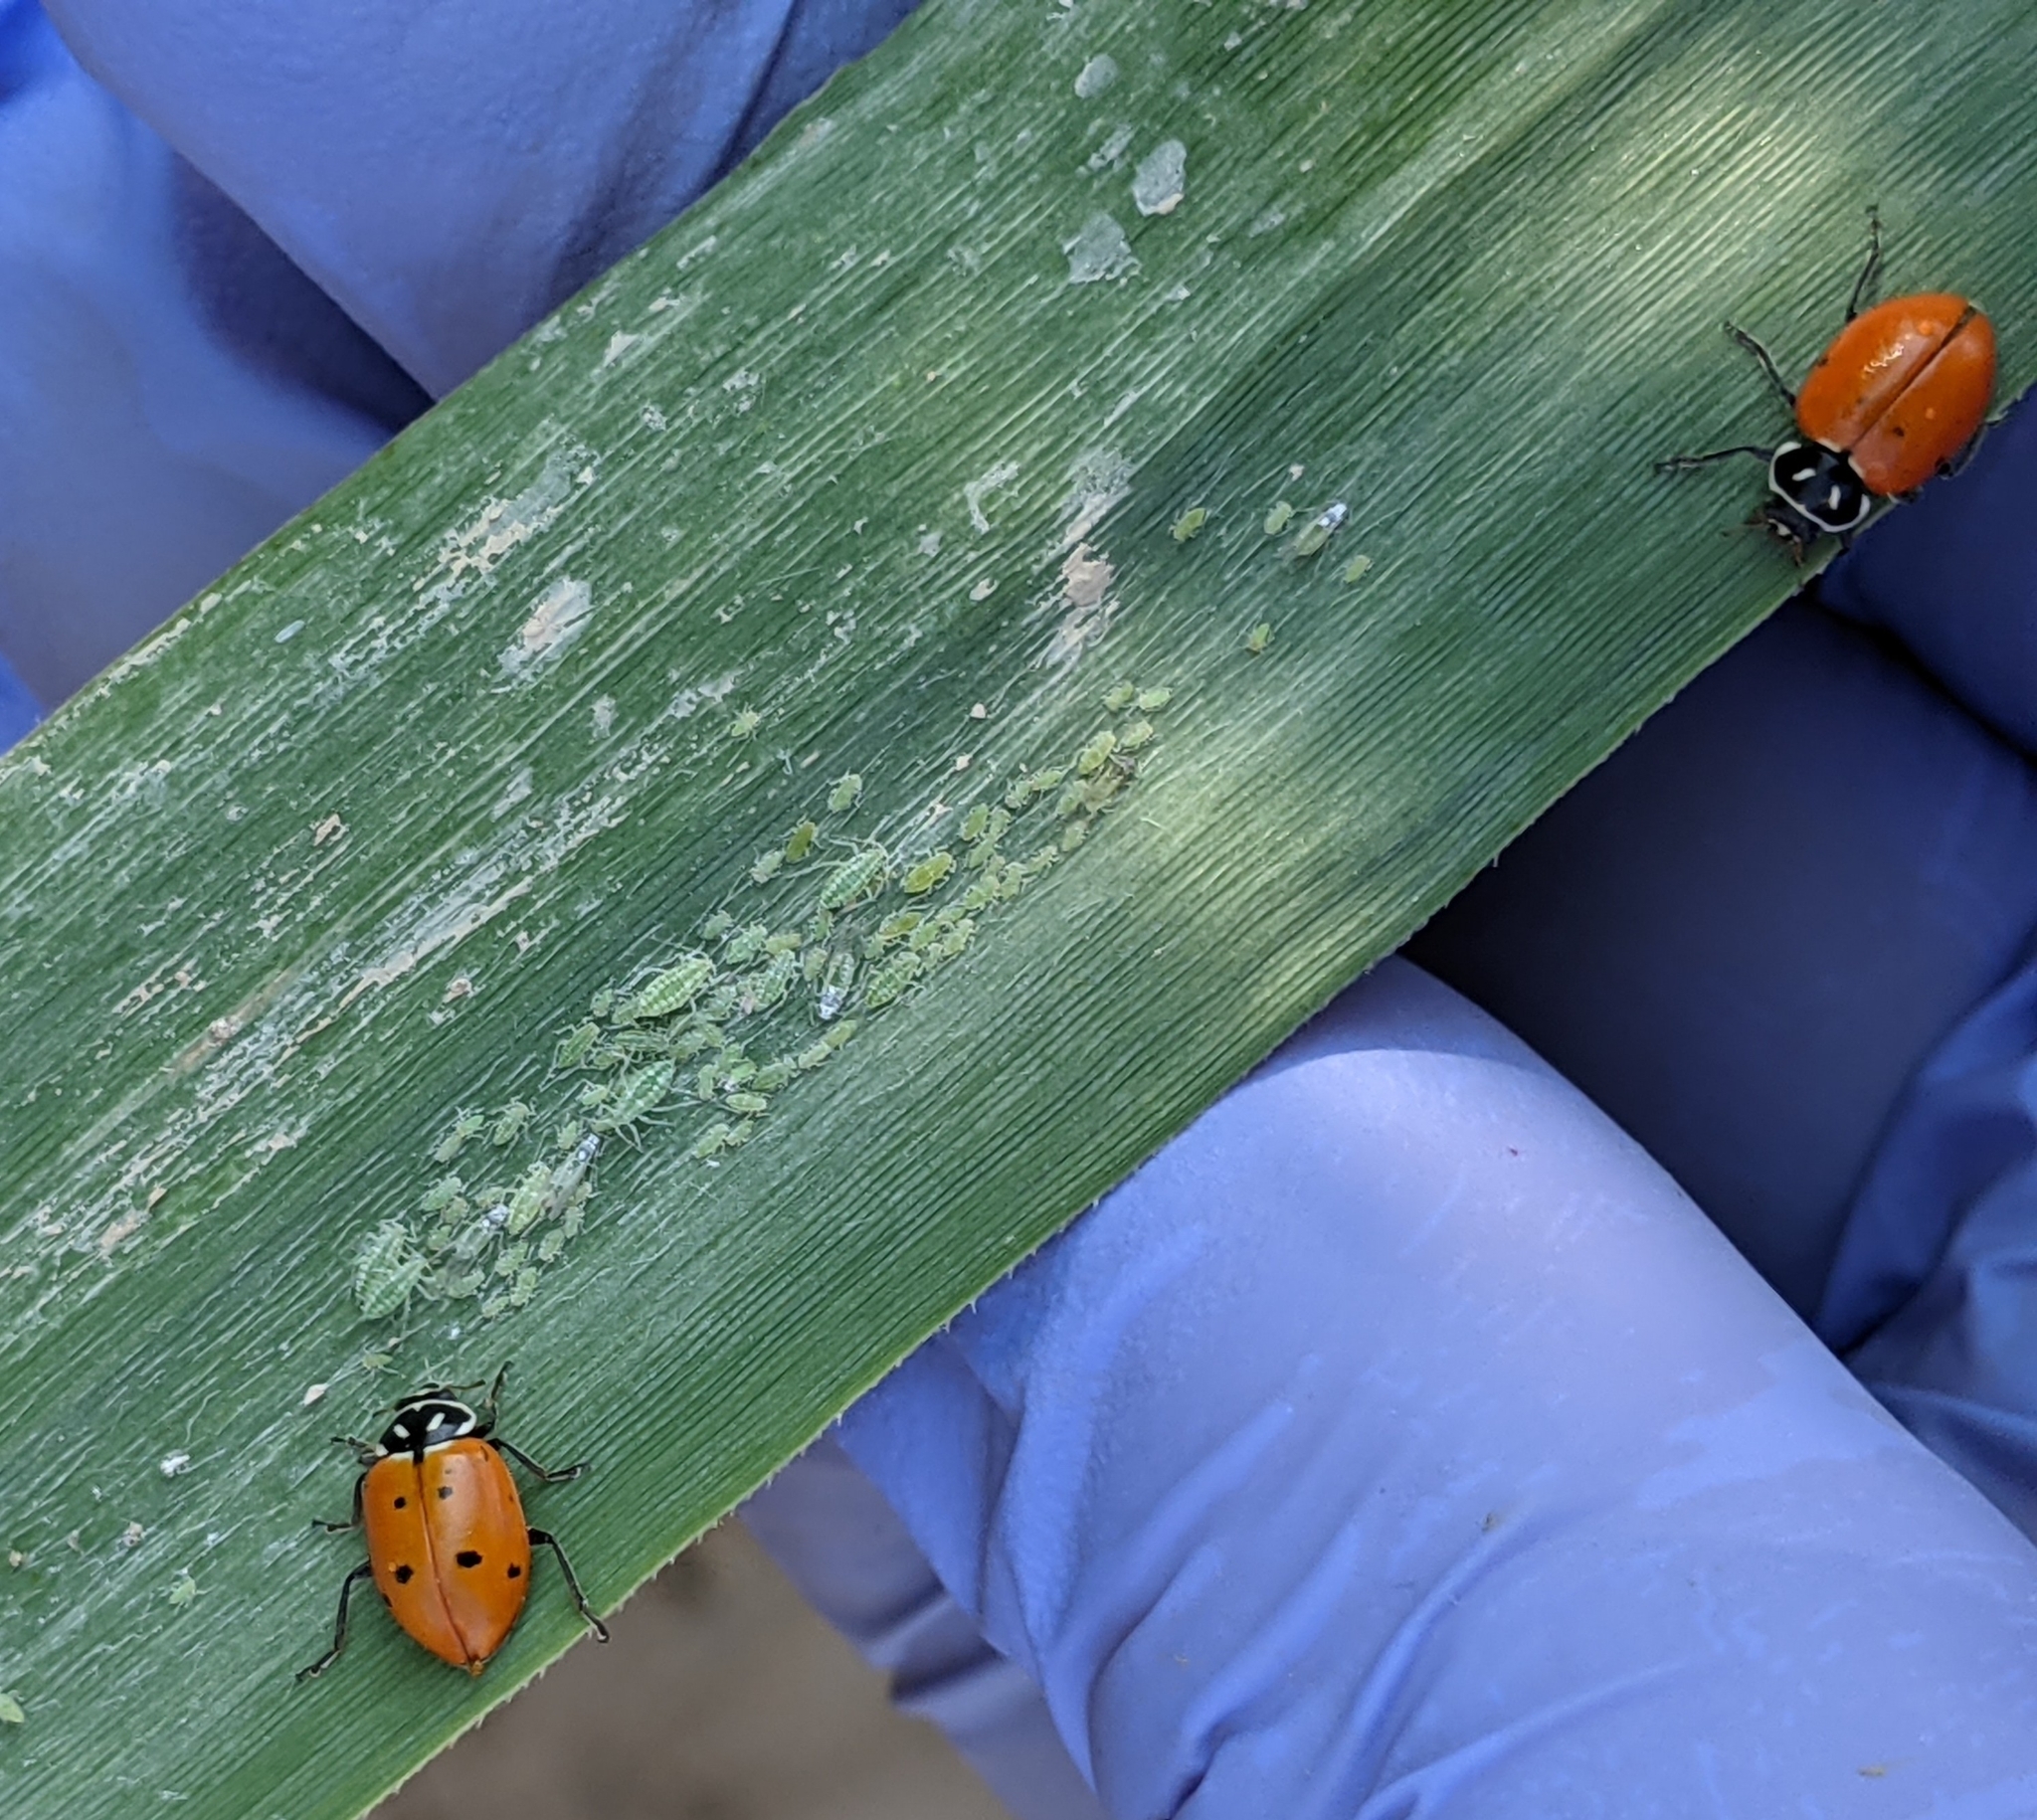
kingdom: Animalia
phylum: Arthropoda
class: Insecta
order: Coleoptera
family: Coccinellidae
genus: Hippodamia
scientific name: Hippodamia convergens
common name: Convergent lady beetle
